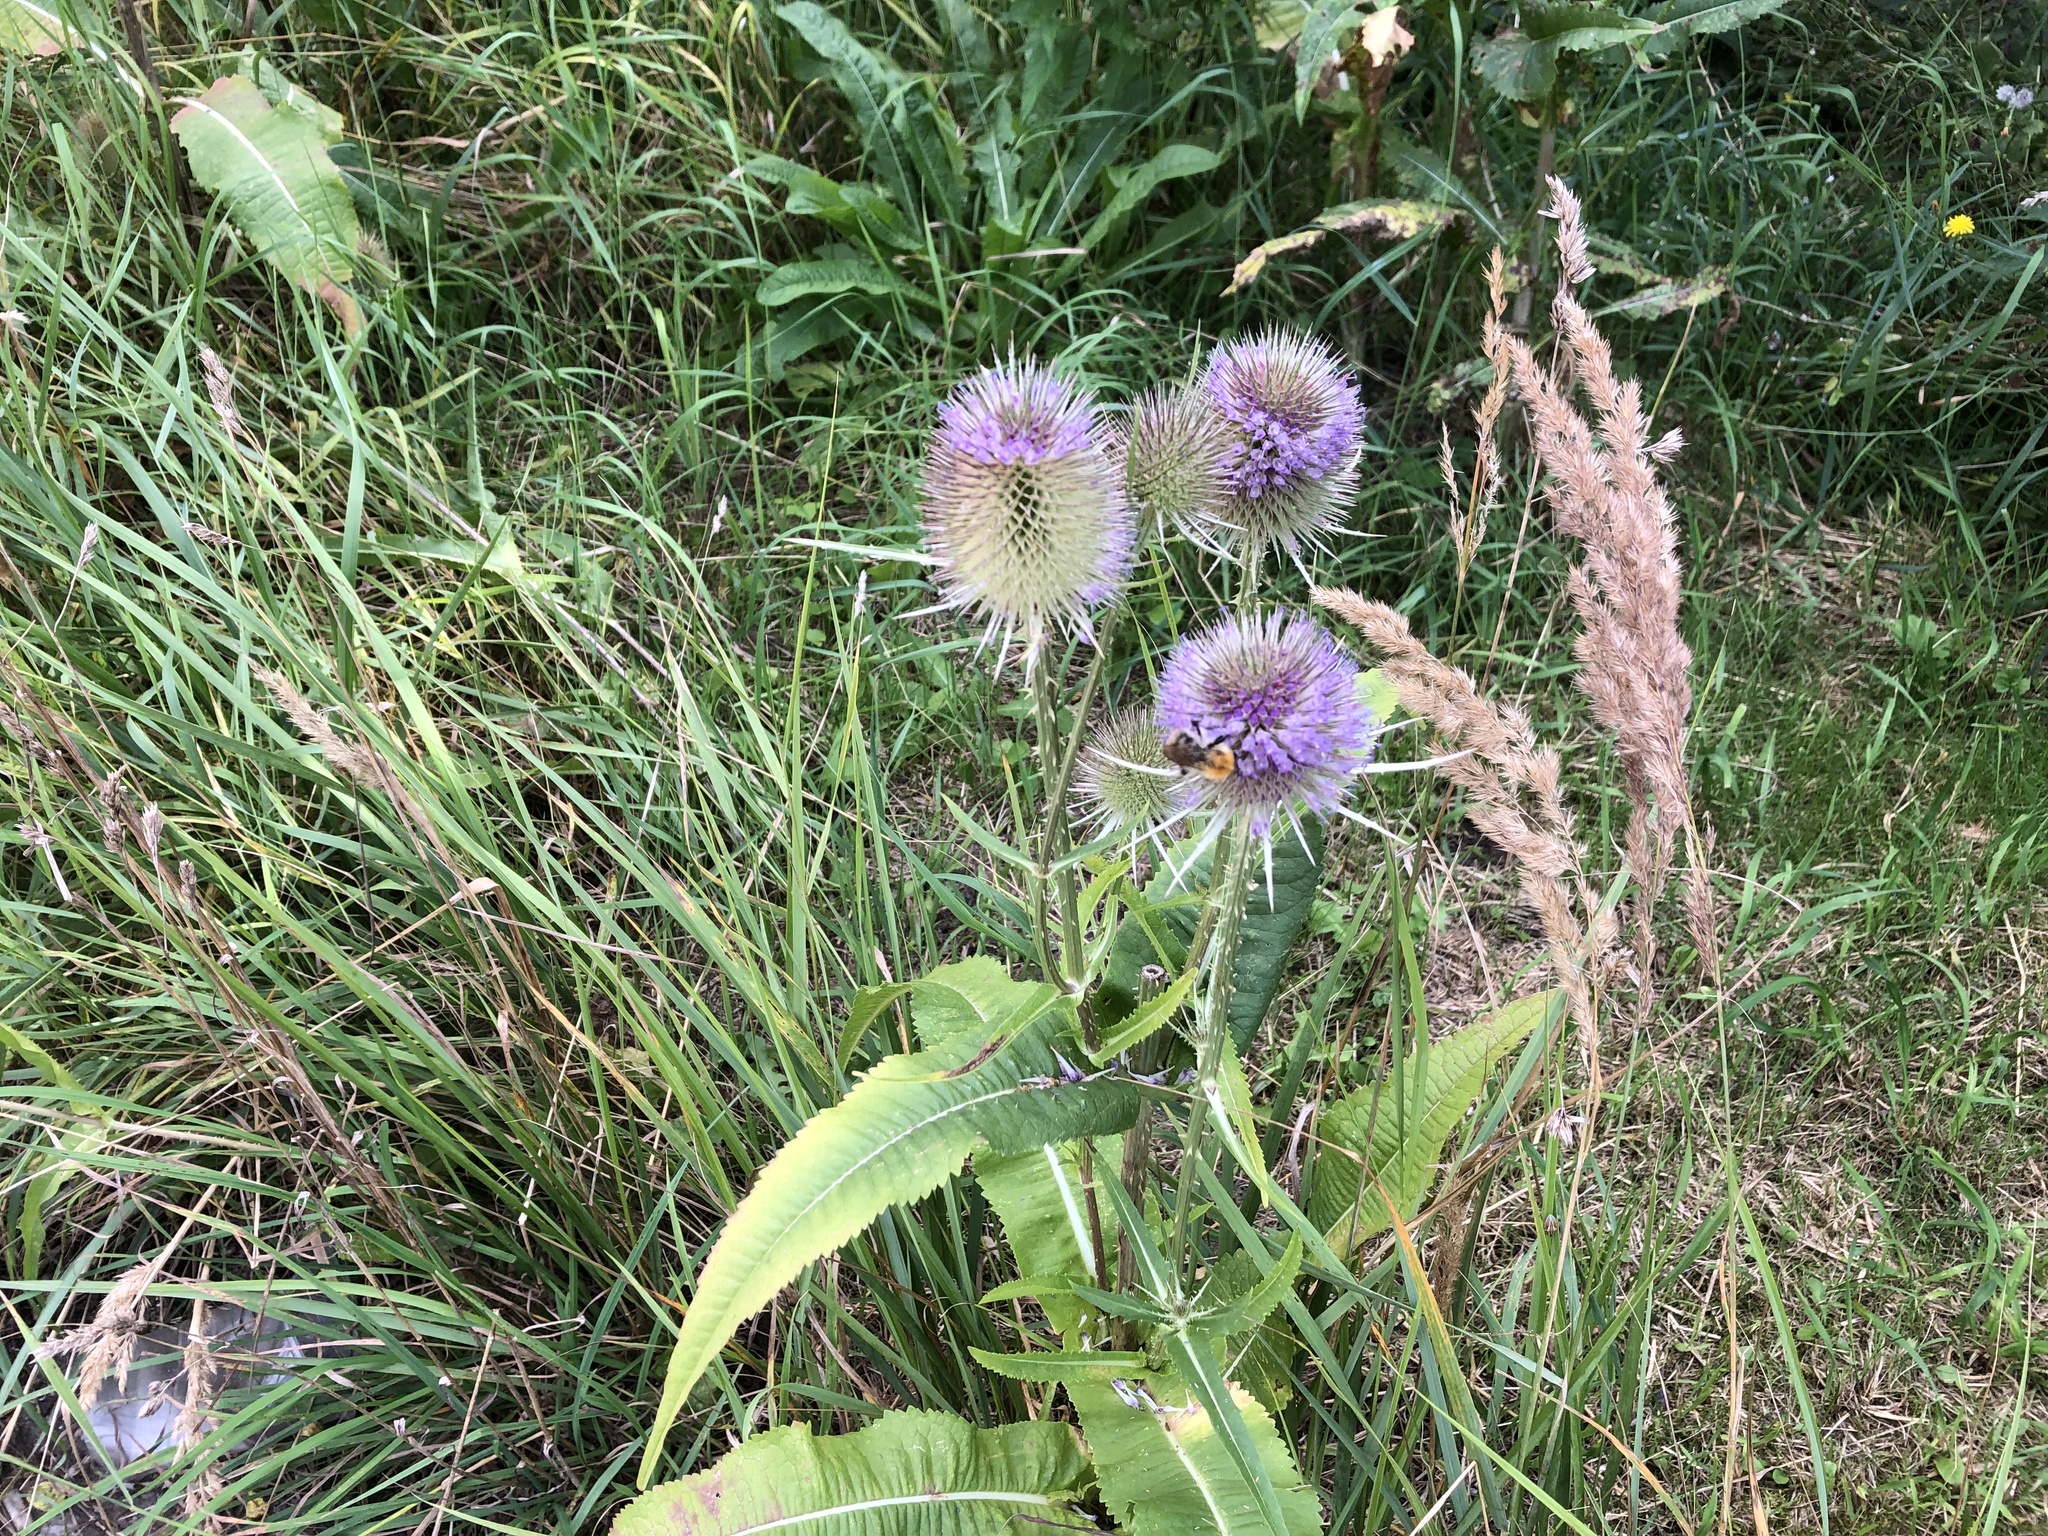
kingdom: Plantae
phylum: Tracheophyta
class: Magnoliopsida
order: Dipsacales
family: Caprifoliaceae
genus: Dipsacus
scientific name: Dipsacus fullonum
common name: Teasel
